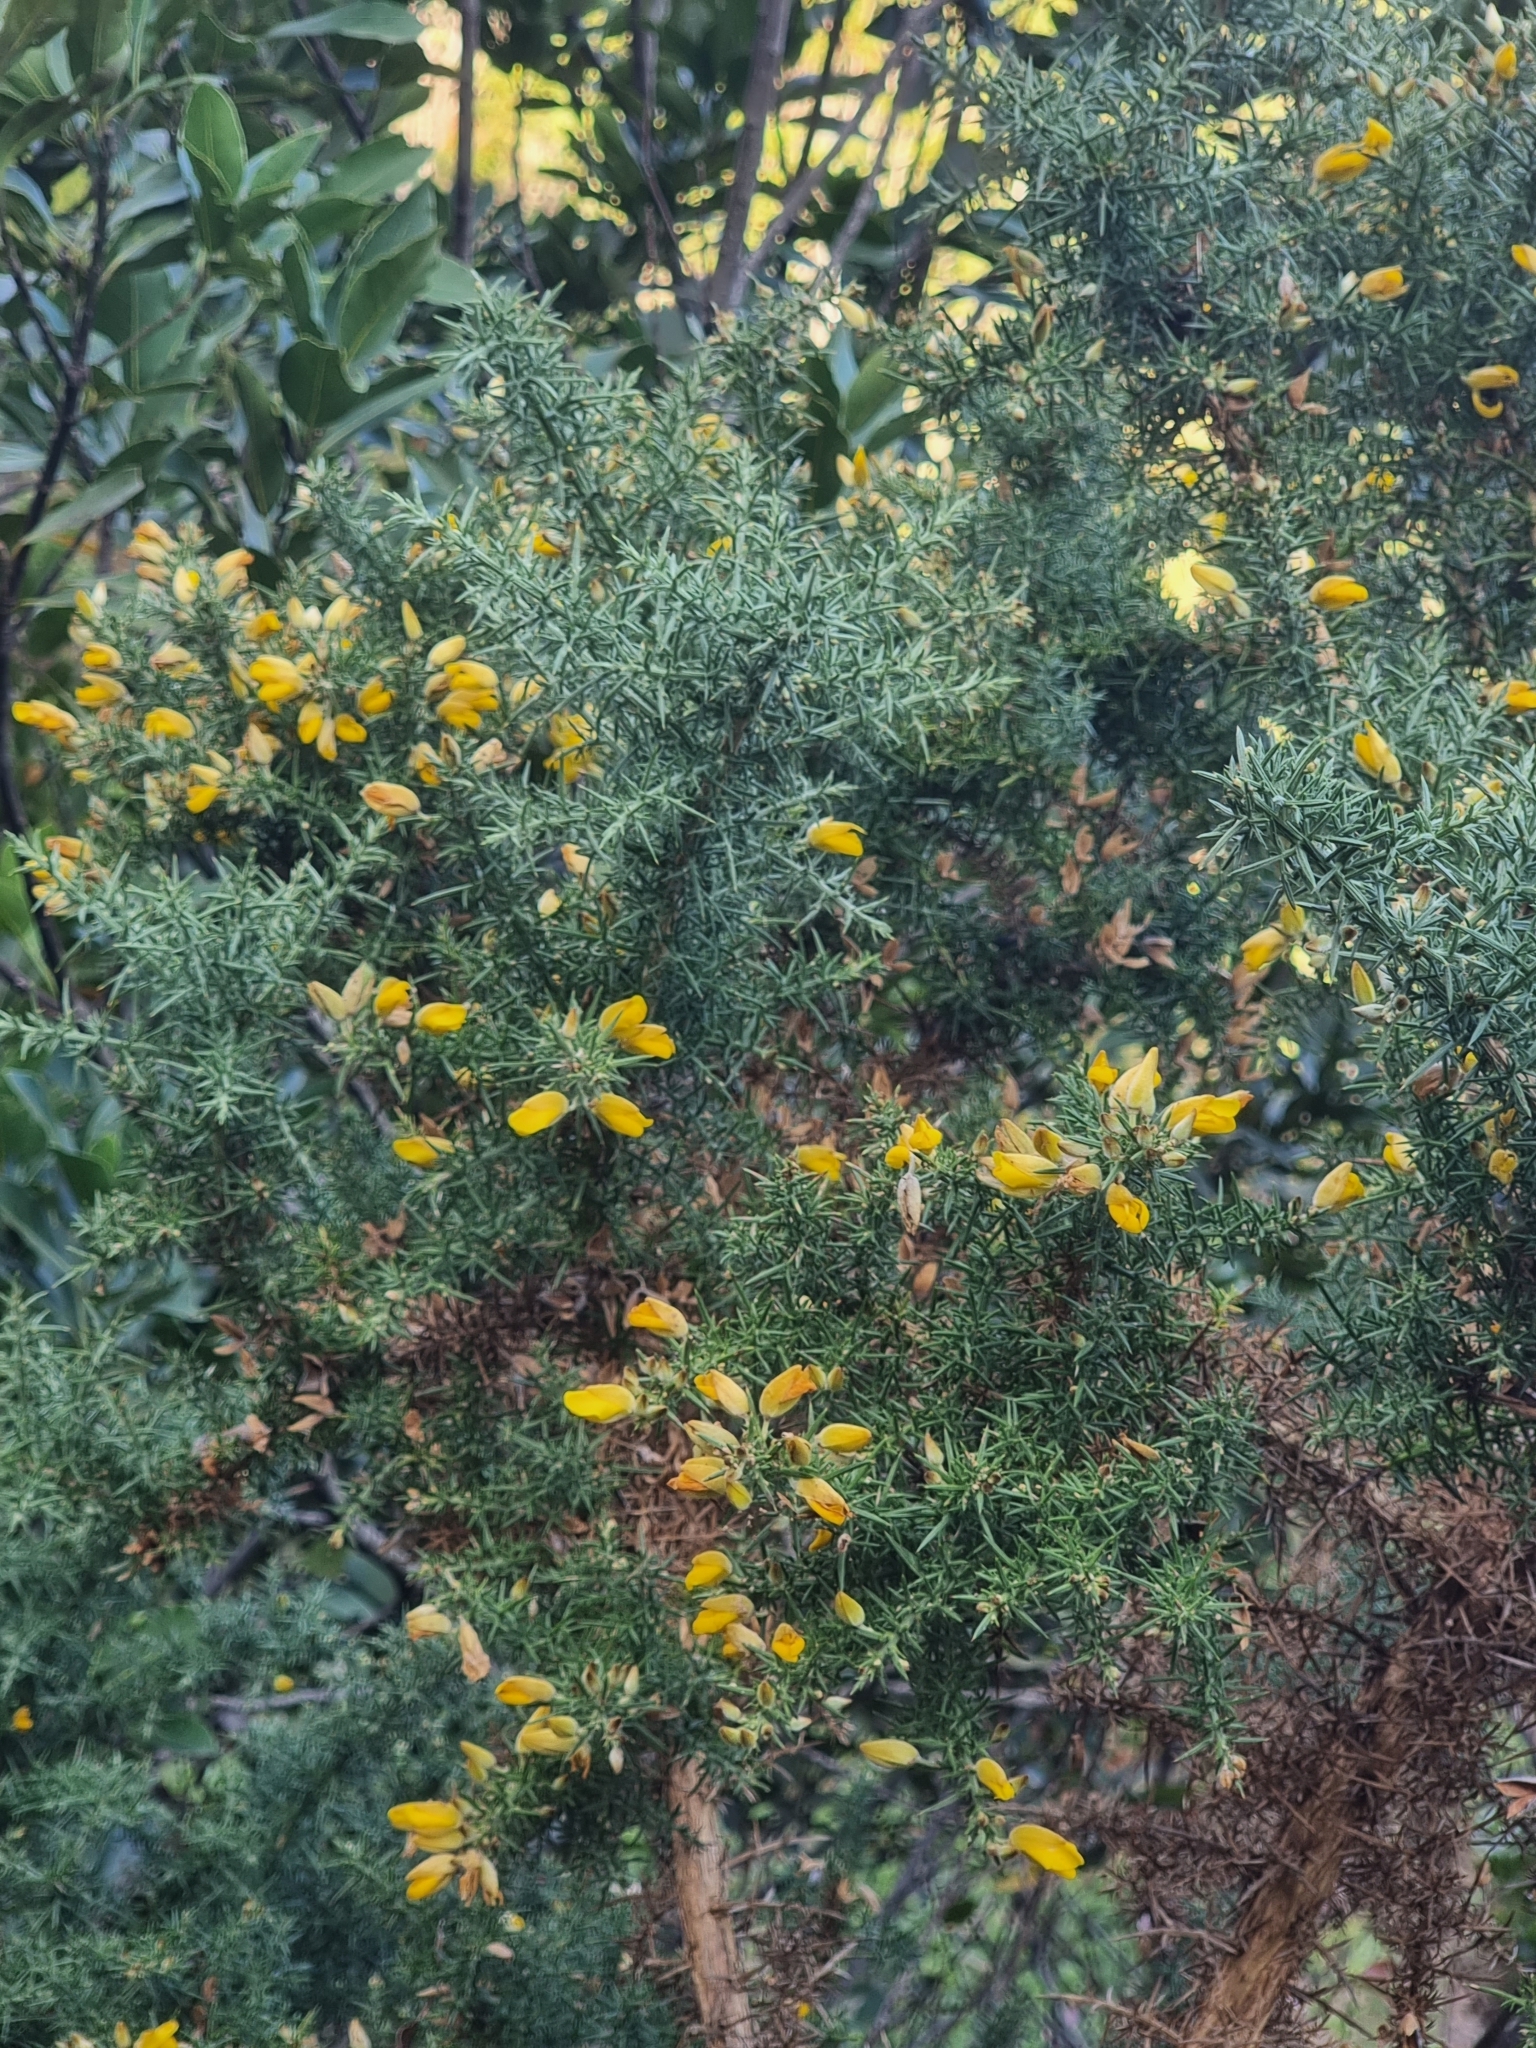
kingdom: Plantae
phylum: Tracheophyta
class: Magnoliopsida
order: Fabales
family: Fabaceae
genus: Ulex
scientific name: Ulex europaeus
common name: Common gorse
